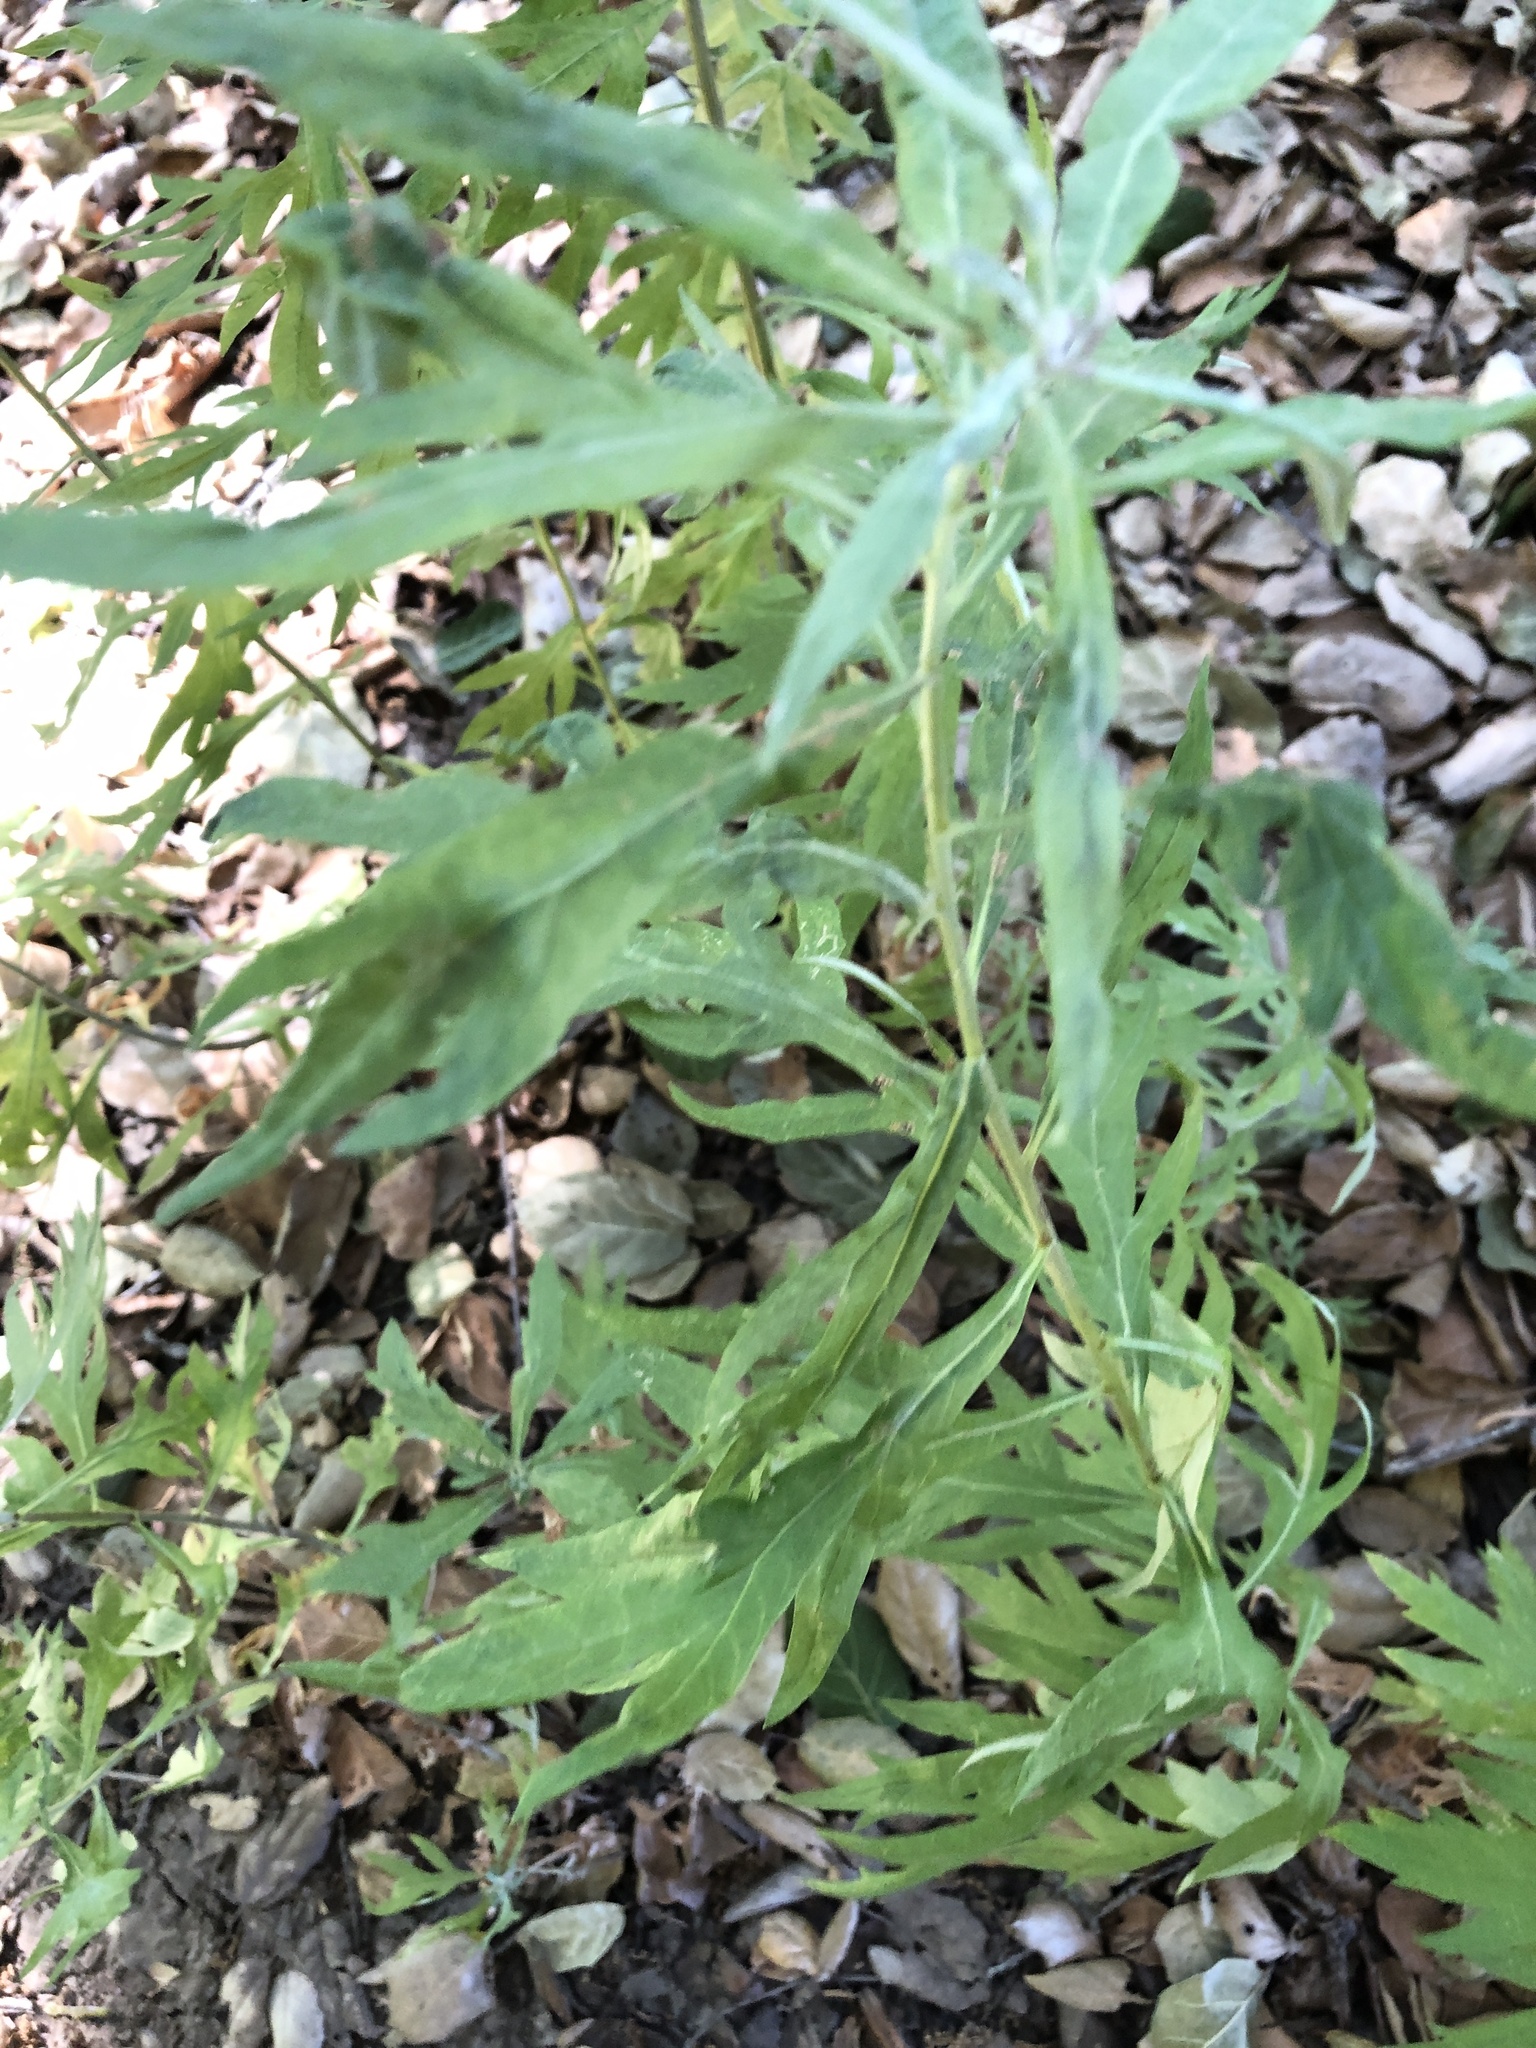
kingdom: Plantae
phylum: Tracheophyta
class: Magnoliopsida
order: Asterales
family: Asteraceae
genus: Artemisia
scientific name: Artemisia douglasiana
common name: Northwest mugwort
